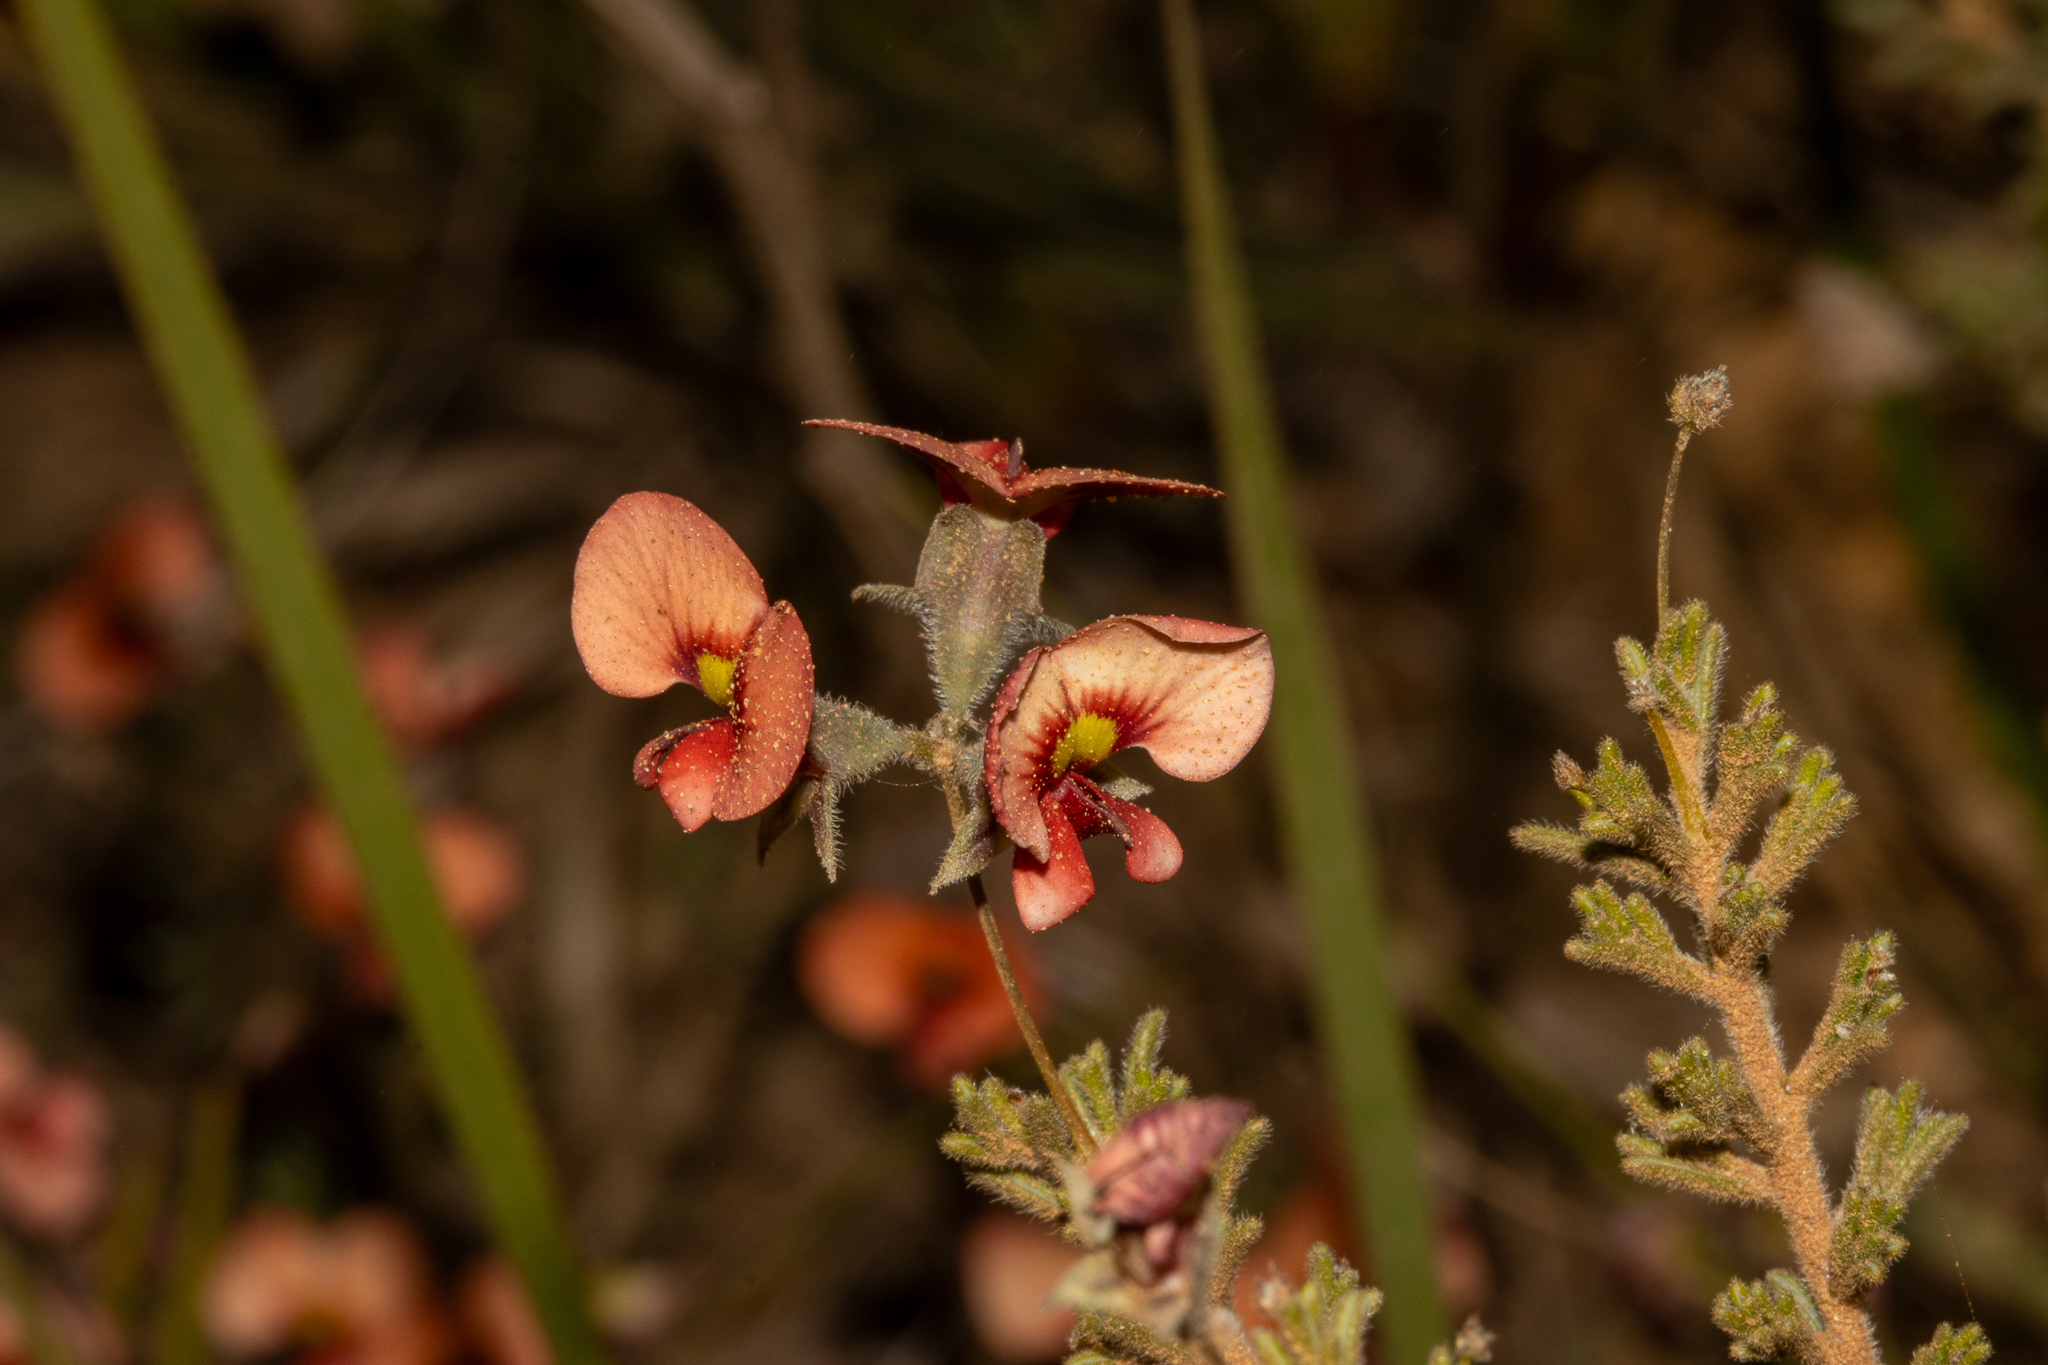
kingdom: Plantae
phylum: Tracheophyta
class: Magnoliopsida
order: Fabales
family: Fabaceae
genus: Dillwynia
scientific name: Dillwynia hispida
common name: Red parrot-pea
